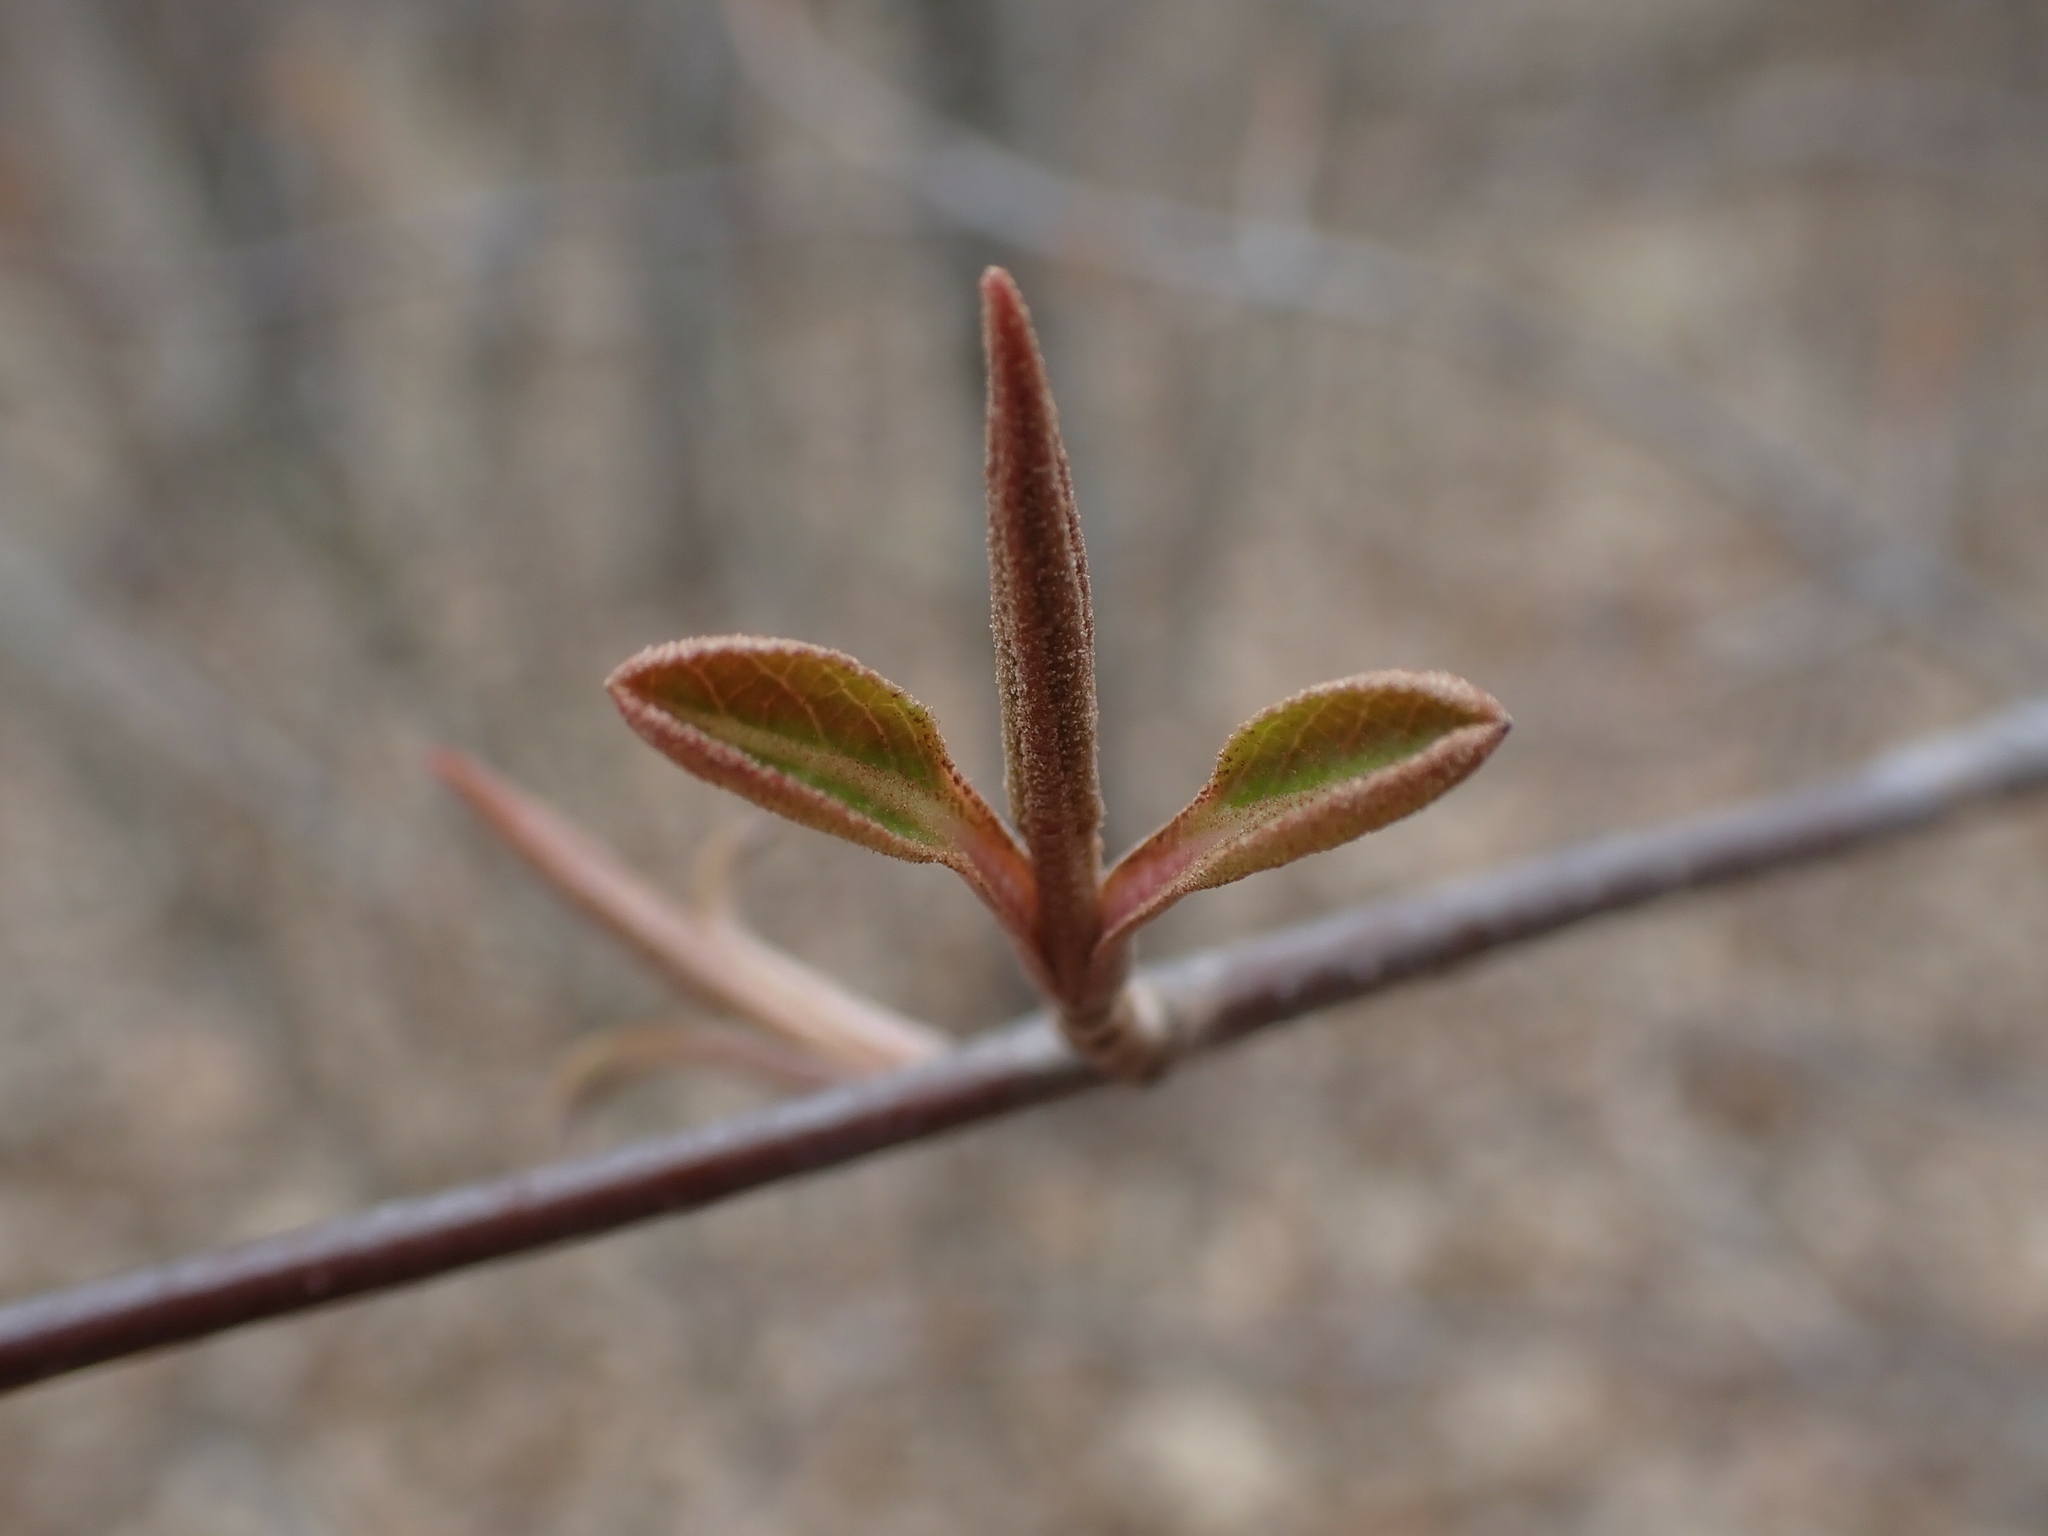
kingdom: Plantae
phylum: Tracheophyta
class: Magnoliopsida
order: Dipsacales
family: Viburnaceae
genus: Viburnum
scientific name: Viburnum lentago
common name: Black haw
